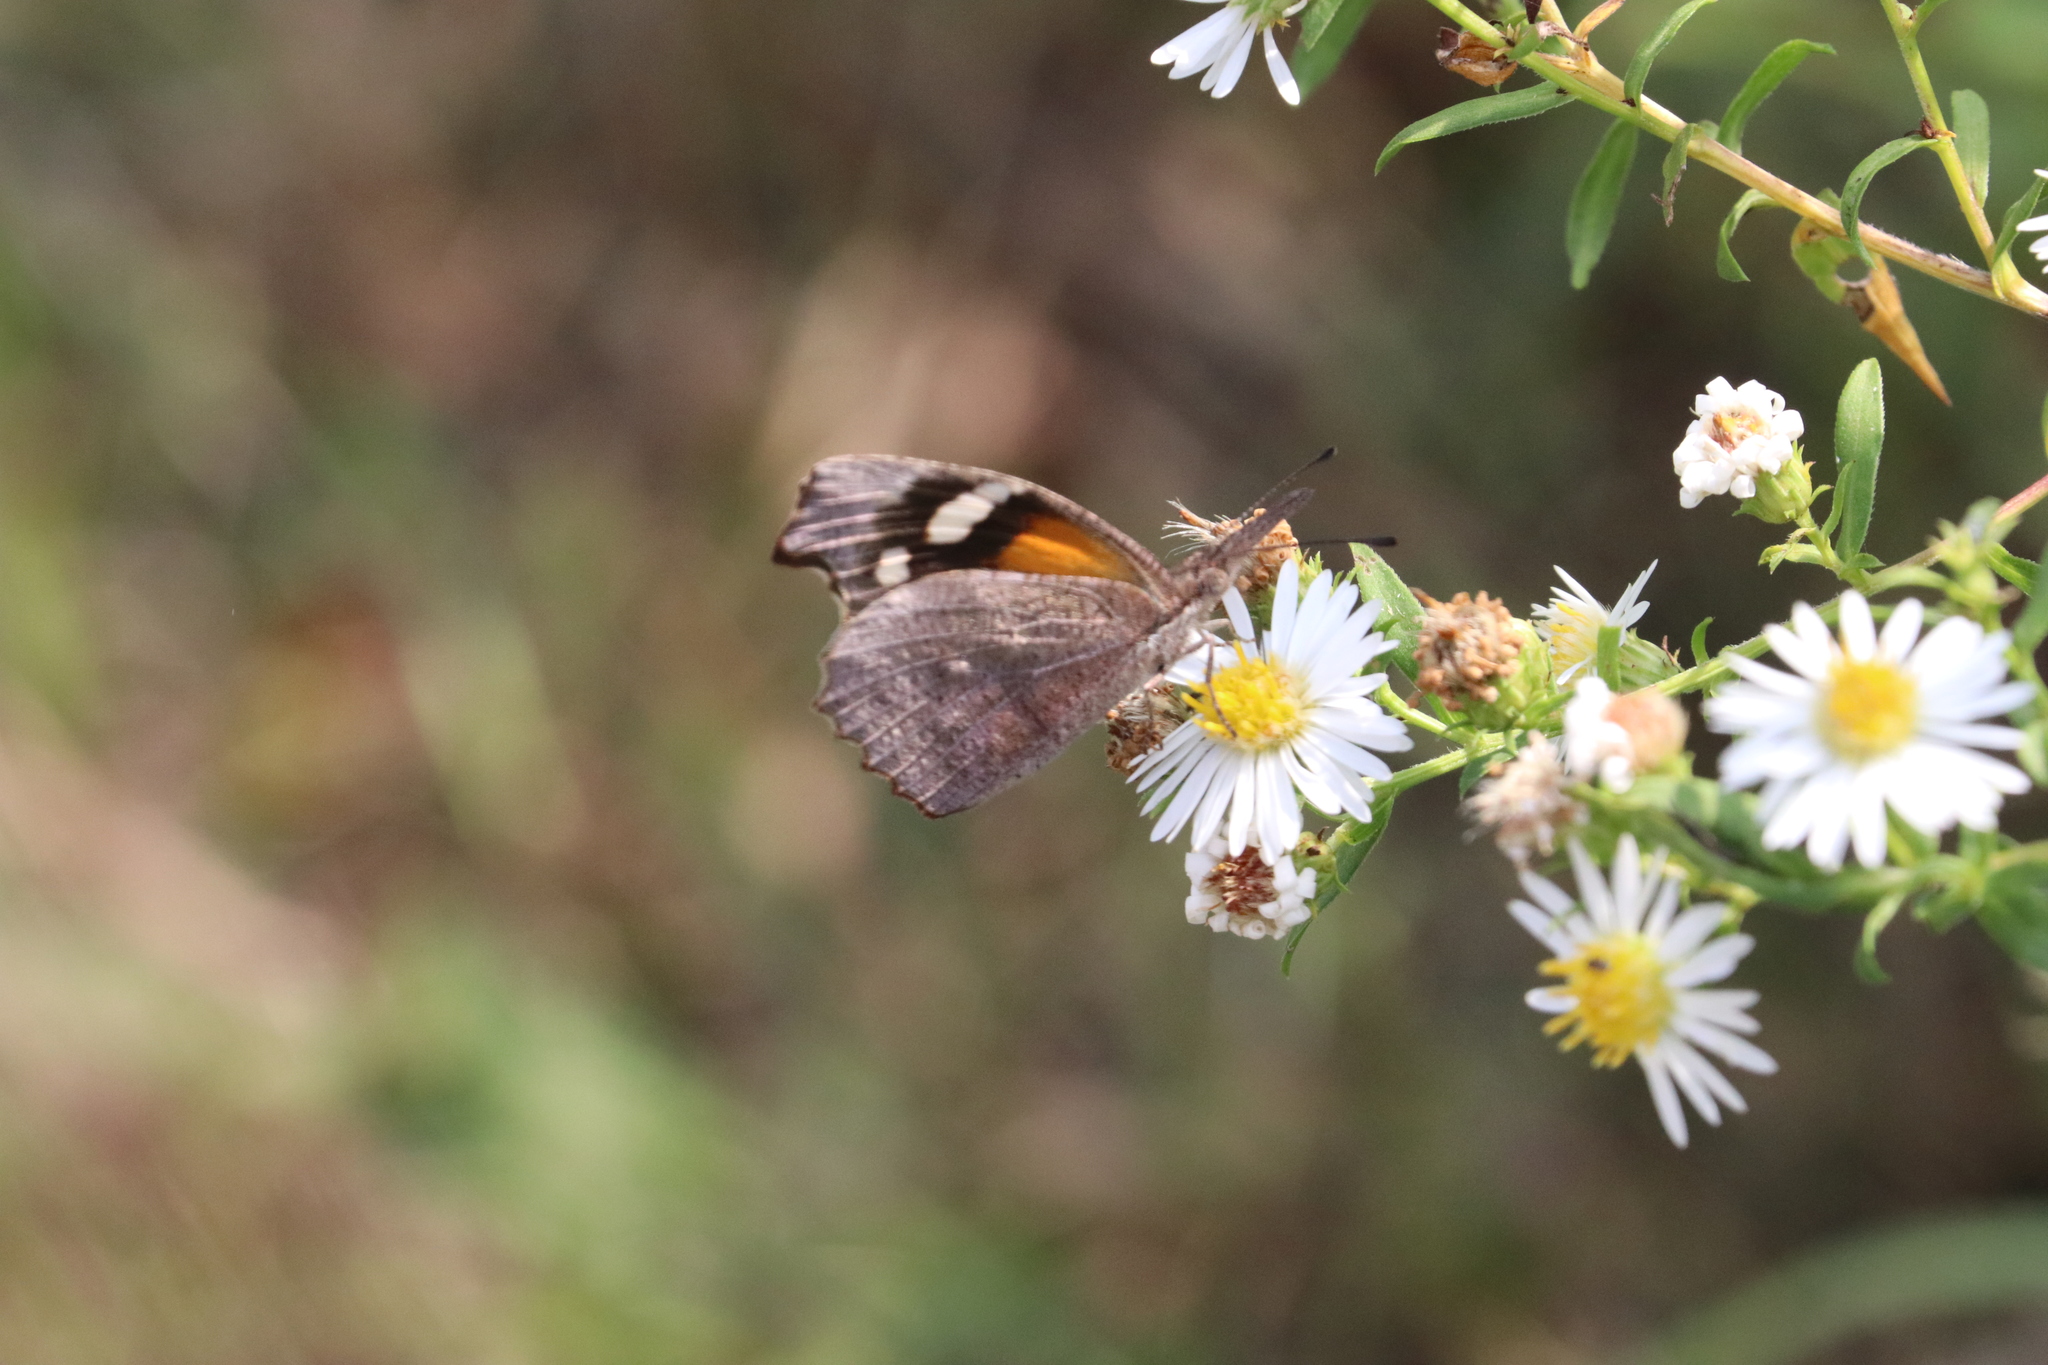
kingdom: Animalia
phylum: Arthropoda
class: Insecta
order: Lepidoptera
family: Nymphalidae
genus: Libytheana
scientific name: Libytheana carinenta
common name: American snout
